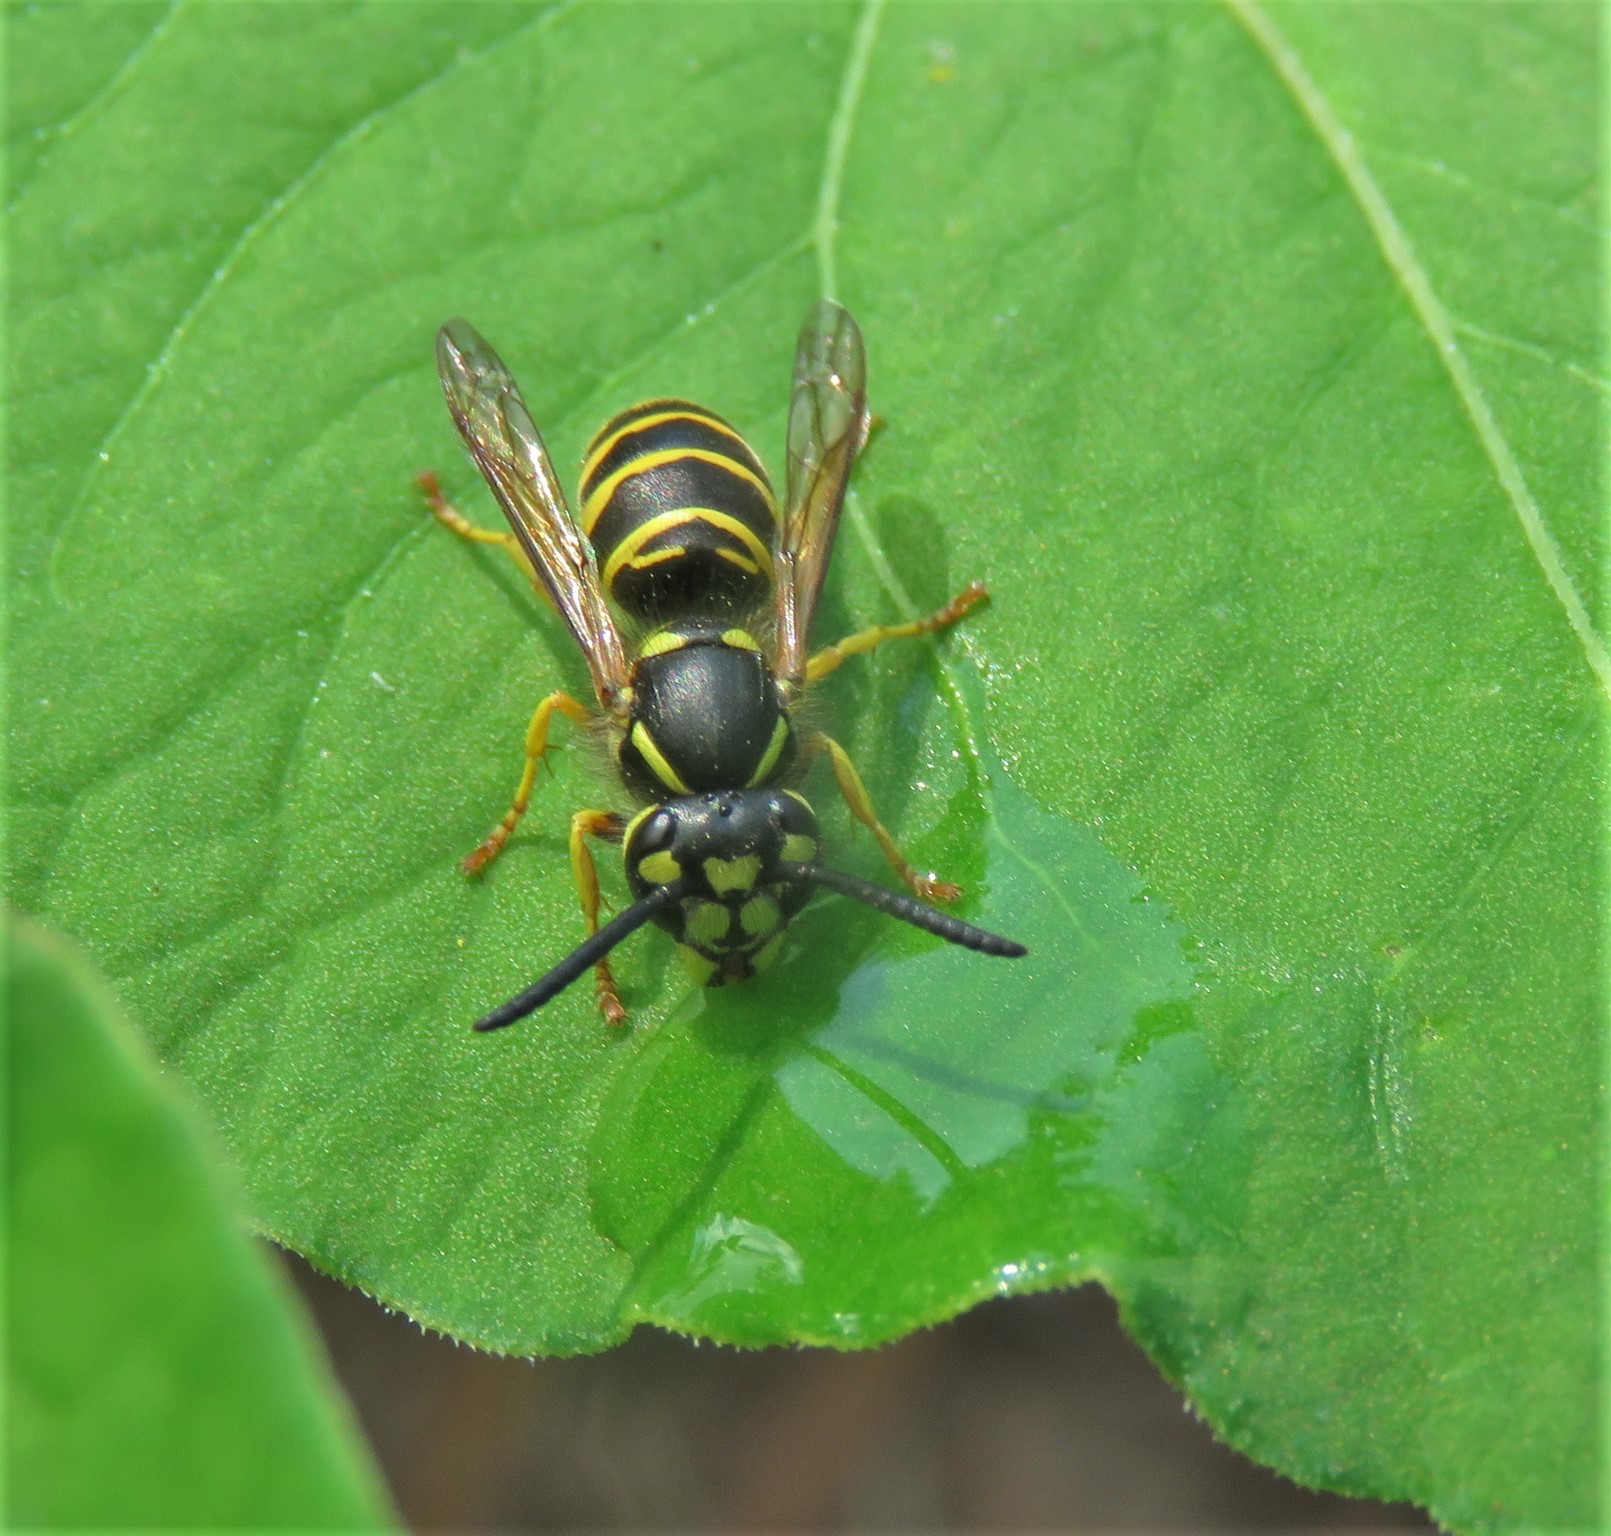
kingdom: Animalia
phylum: Chordata
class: Amphibia
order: Anura
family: Ranidae
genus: Lithobates
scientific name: Lithobates clamitans
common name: Green frog
